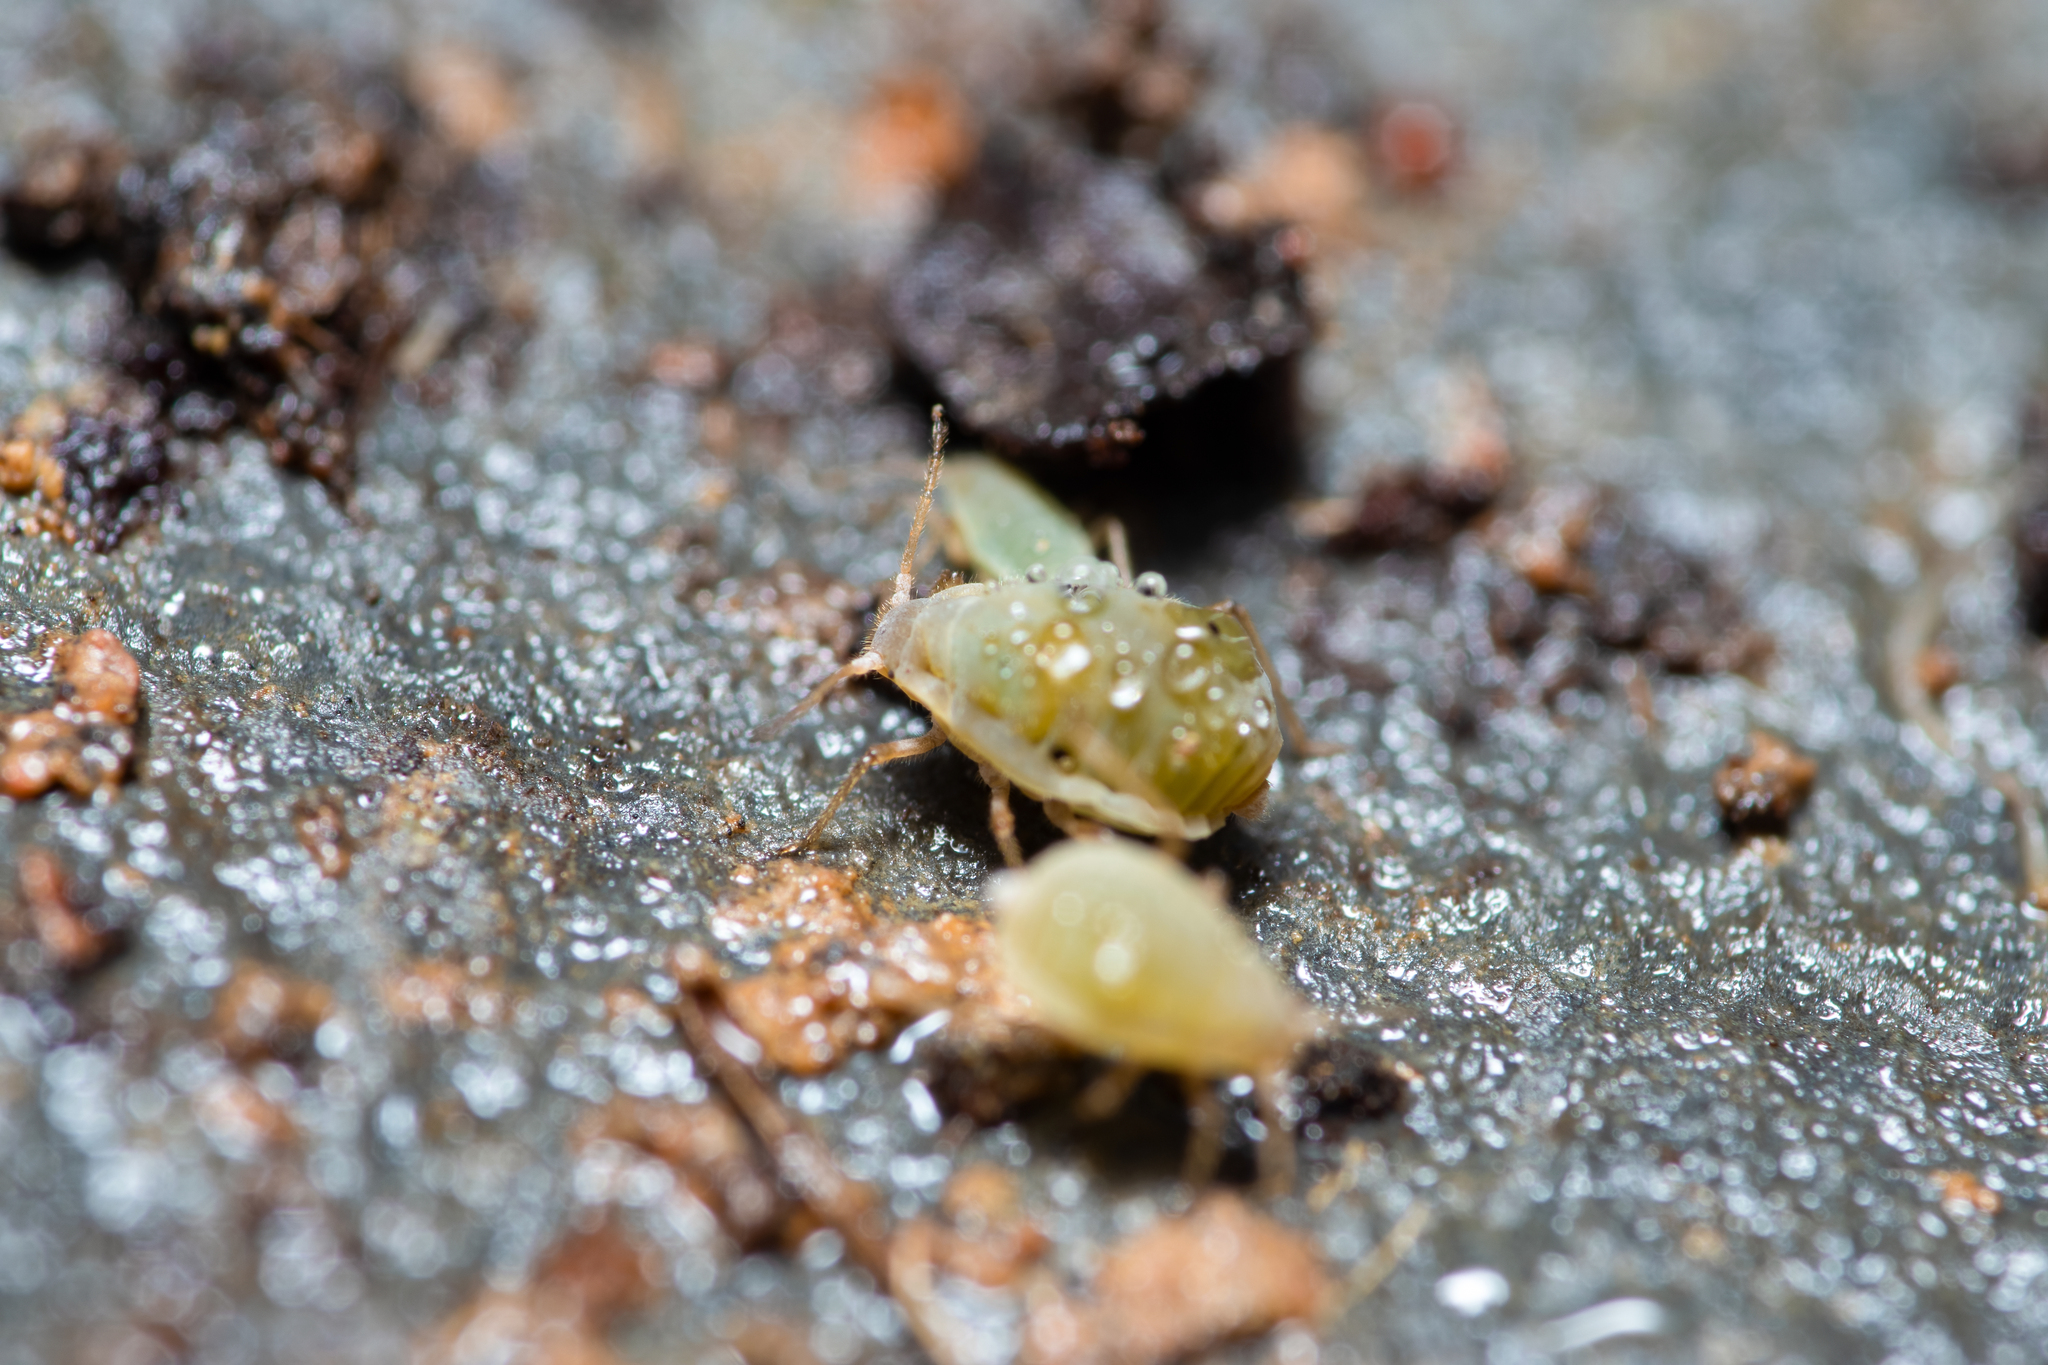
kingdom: Animalia
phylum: Arthropoda
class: Insecta
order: Hemiptera
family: Aphididae
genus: Forda
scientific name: Forda formicaria
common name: Root aphid
